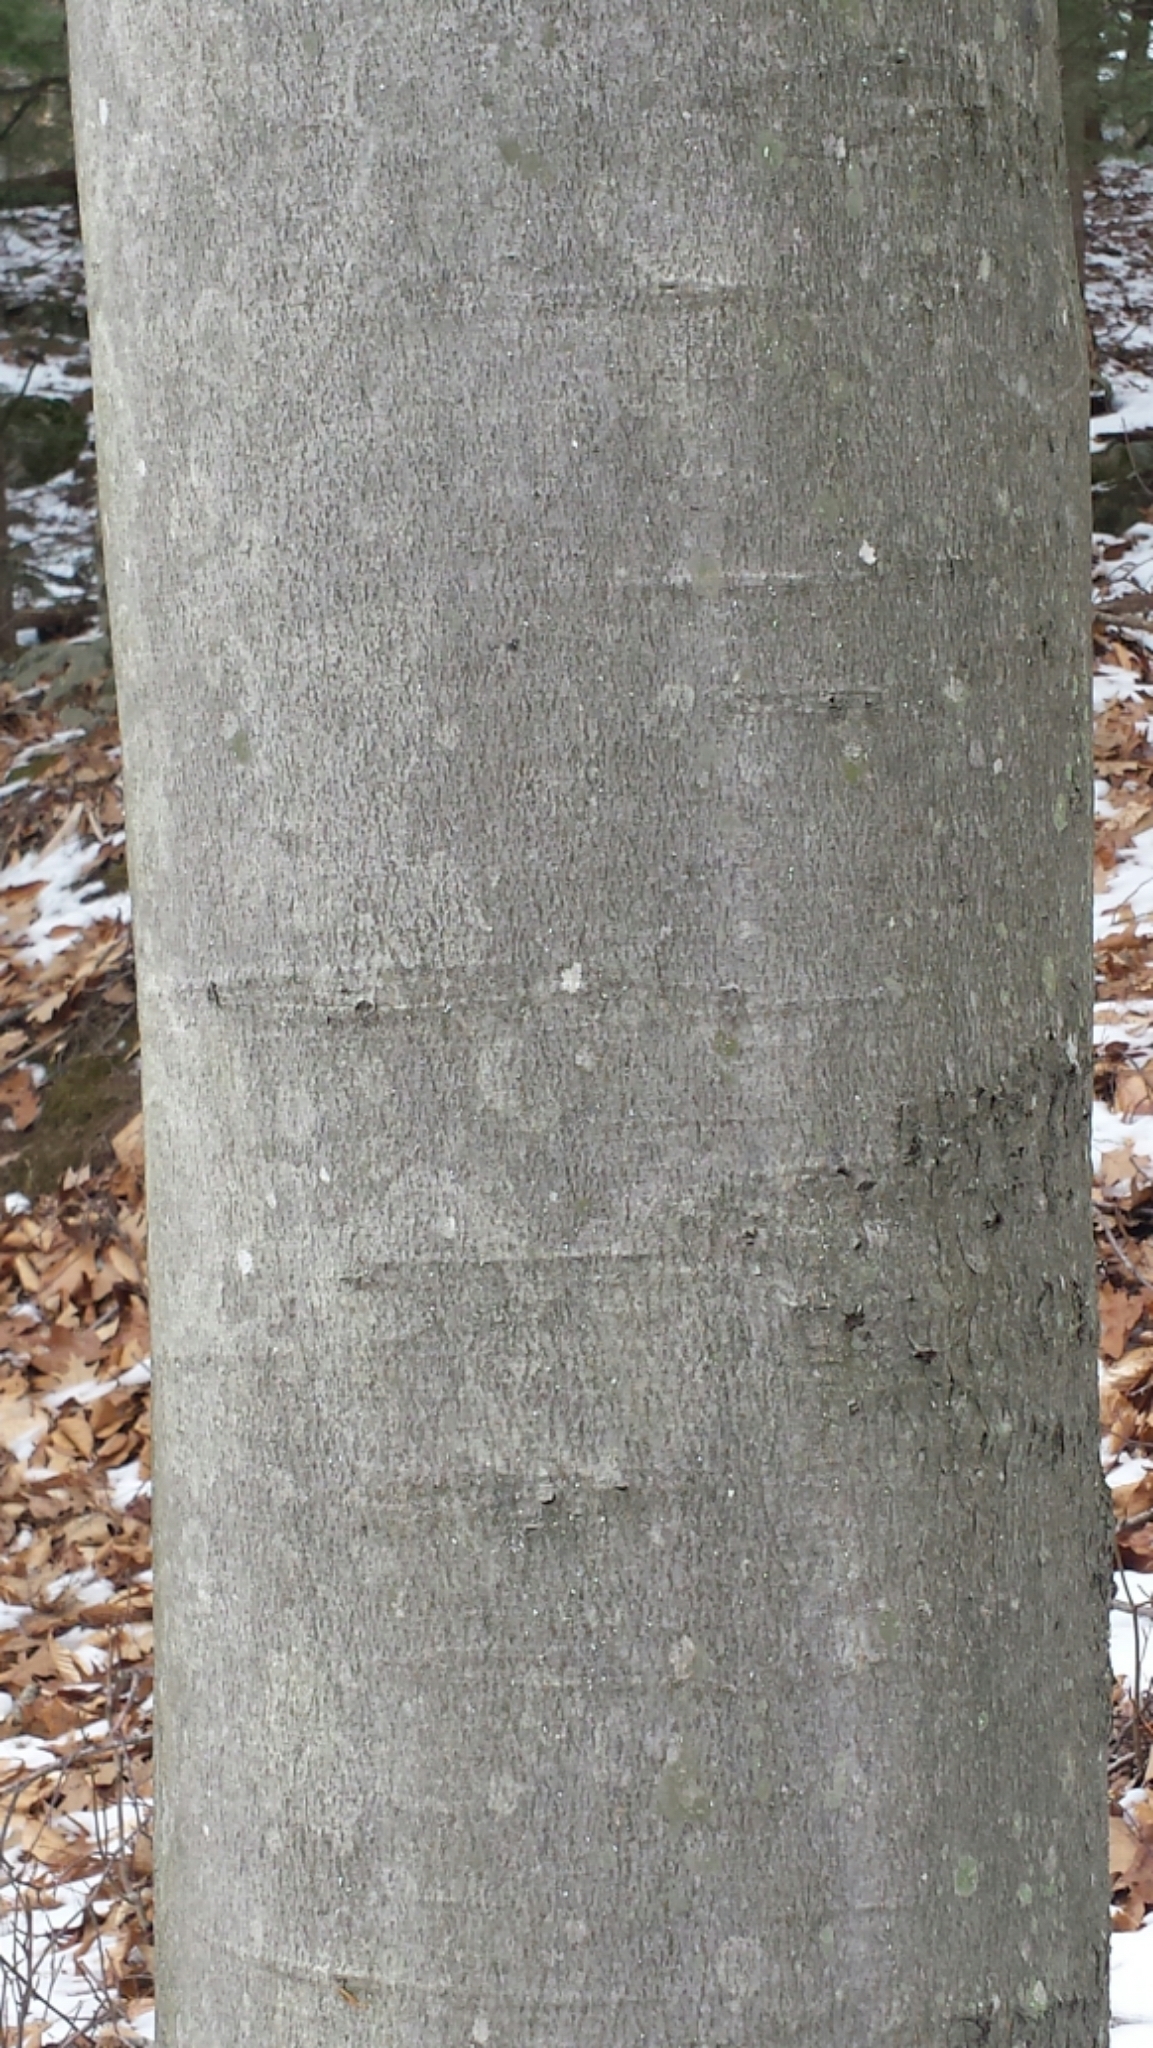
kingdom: Plantae
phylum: Tracheophyta
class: Magnoliopsida
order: Fagales
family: Fagaceae
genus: Fagus
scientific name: Fagus grandifolia
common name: American beech
